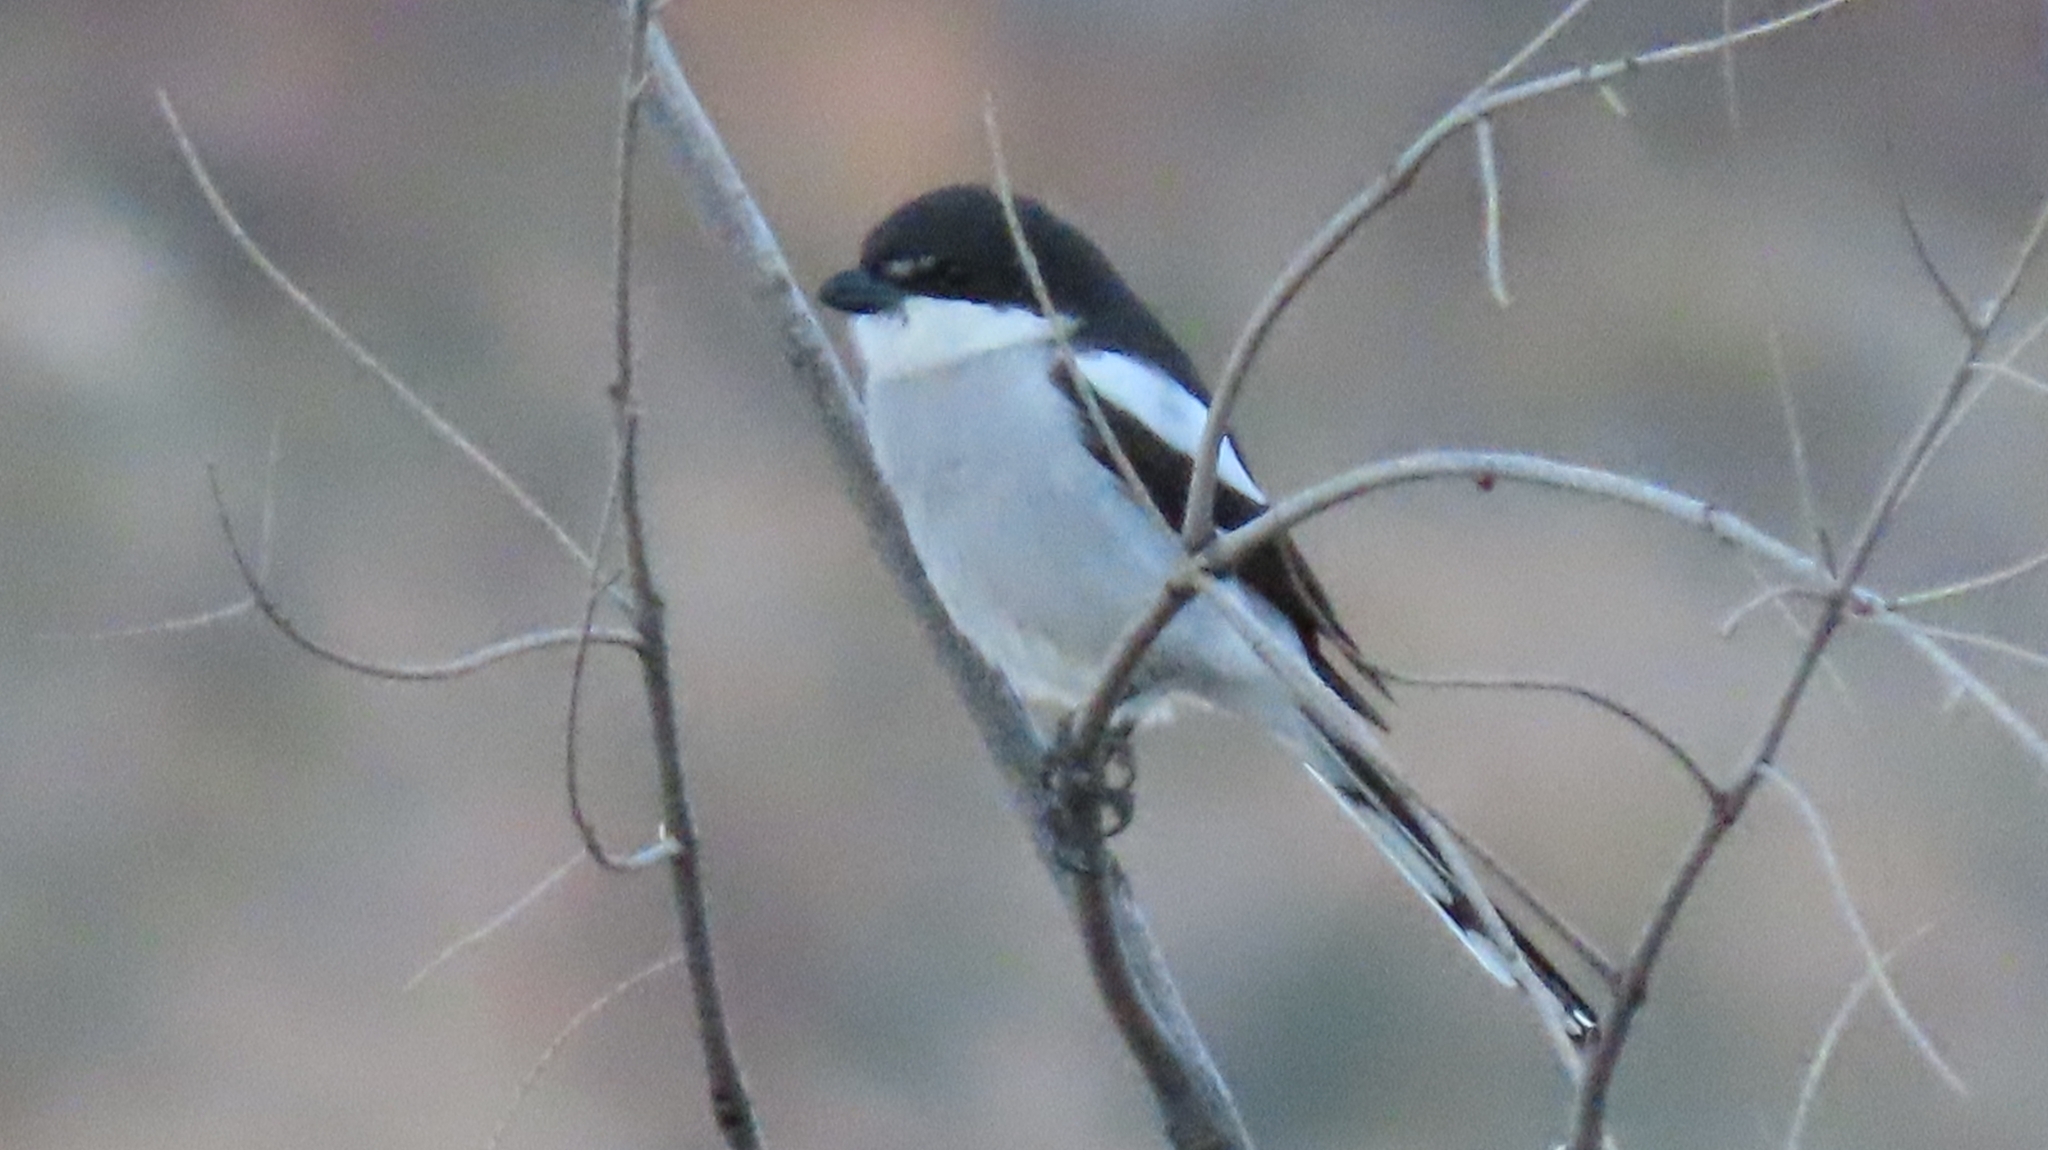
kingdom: Animalia
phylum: Chordata
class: Aves
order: Passeriformes
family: Laniidae
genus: Lanius
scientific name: Lanius collaris
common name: Southern fiscal
